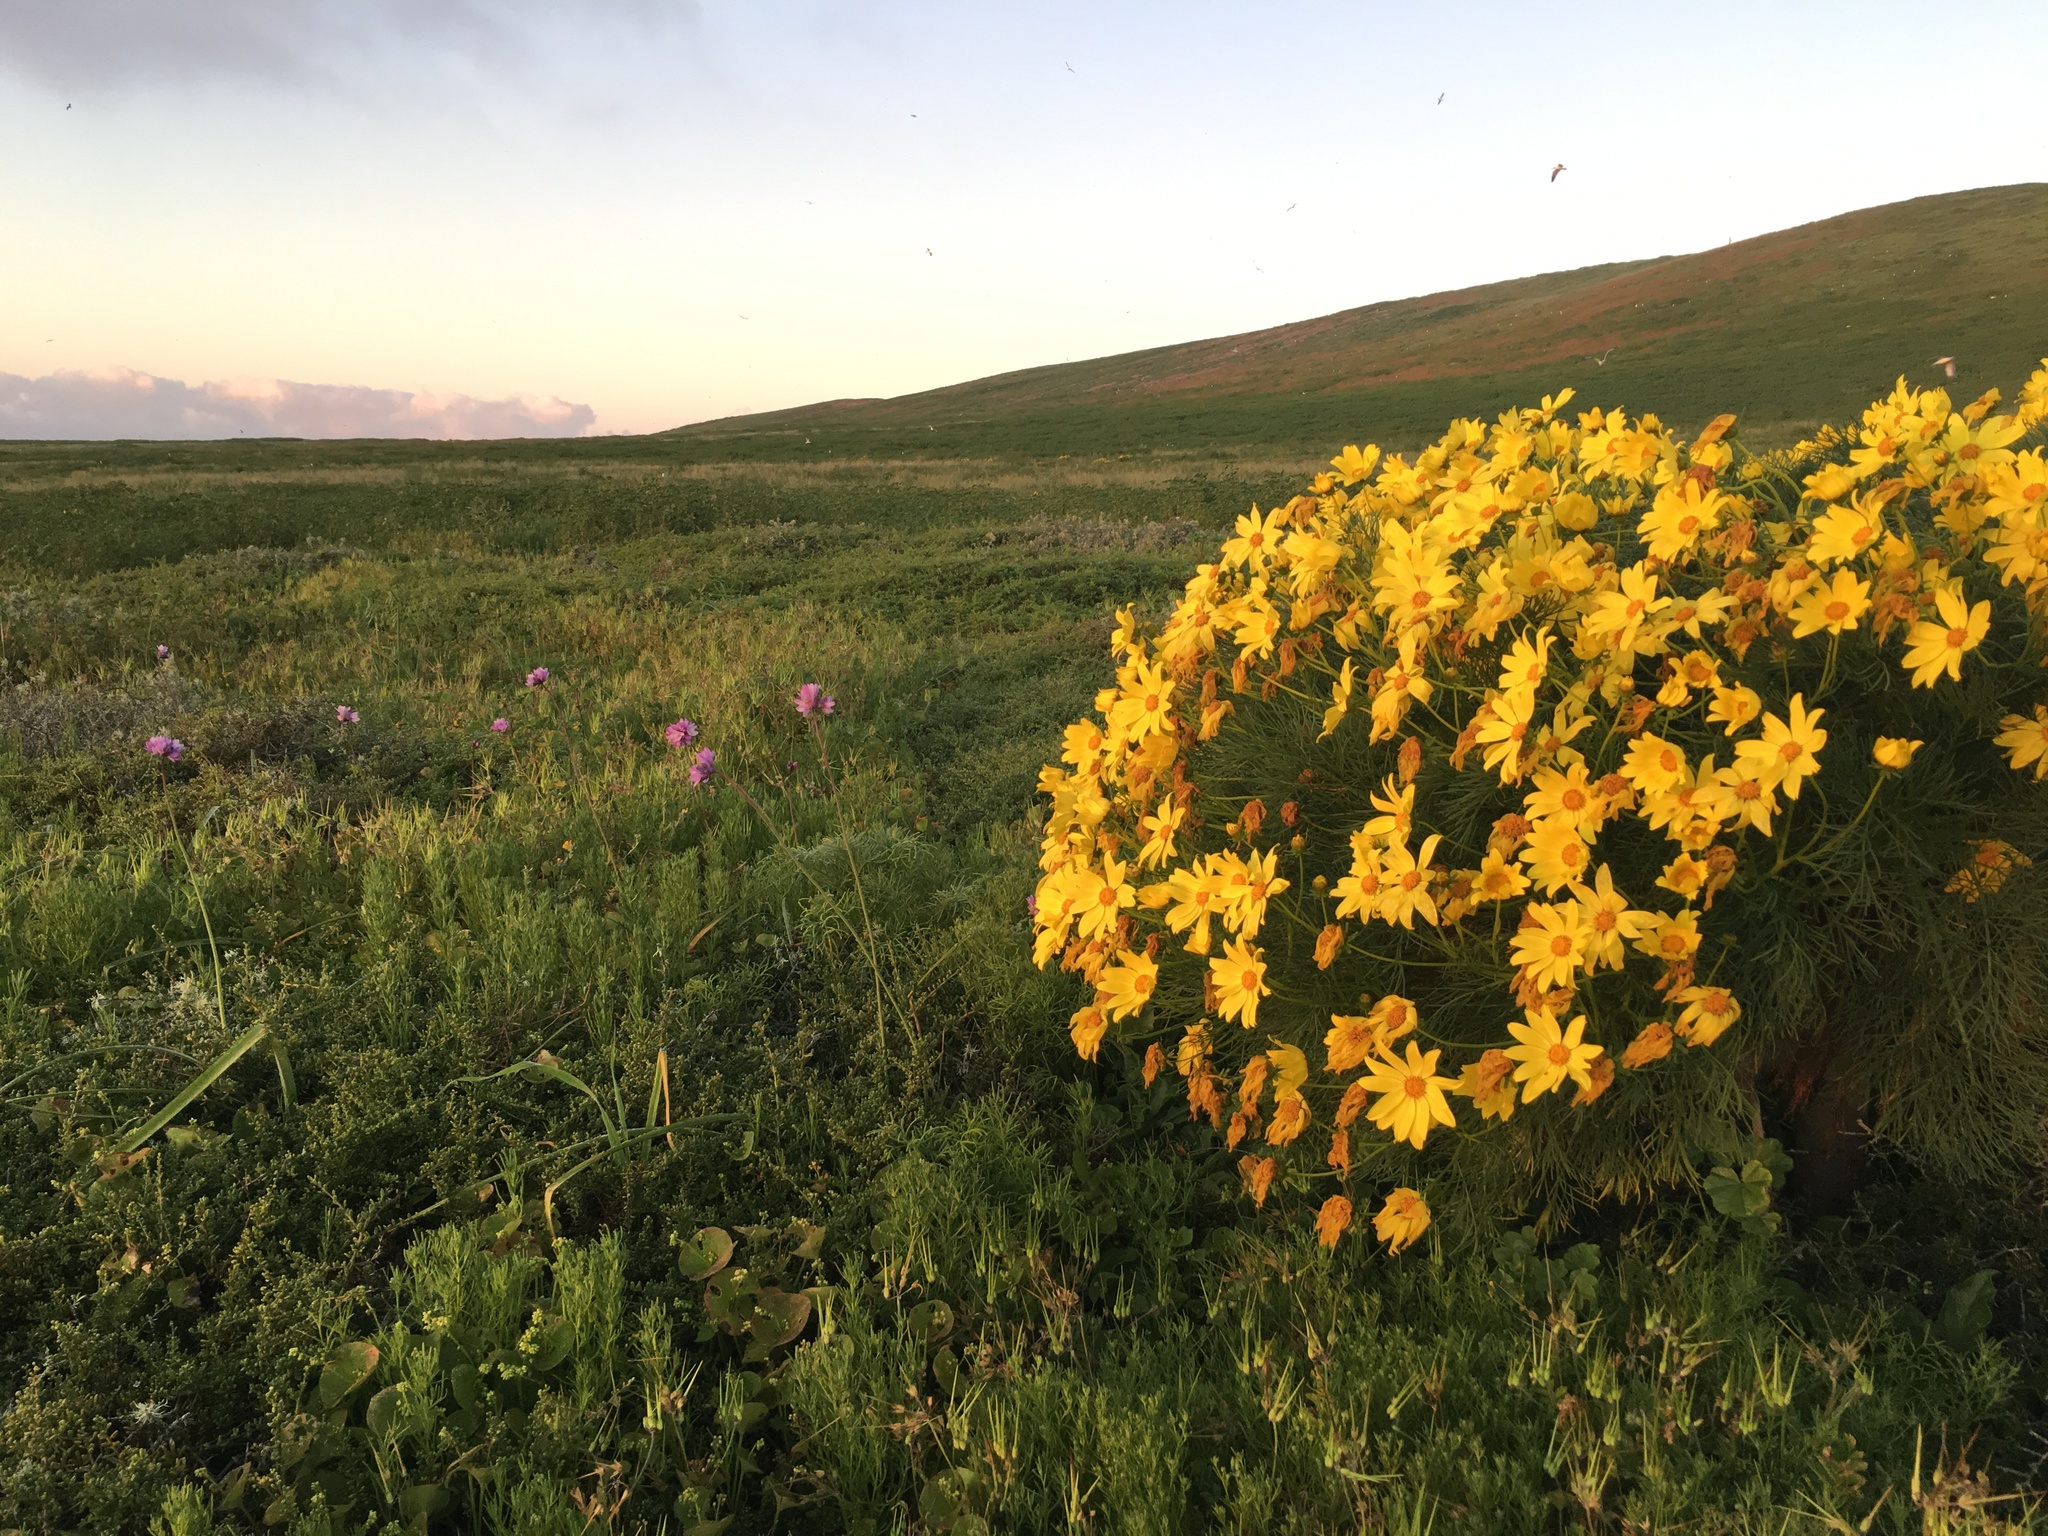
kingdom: Plantae
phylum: Tracheophyta
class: Liliopsida
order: Asparagales
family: Asparagaceae
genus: Dipterostemon
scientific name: Dipterostemon capitatus
